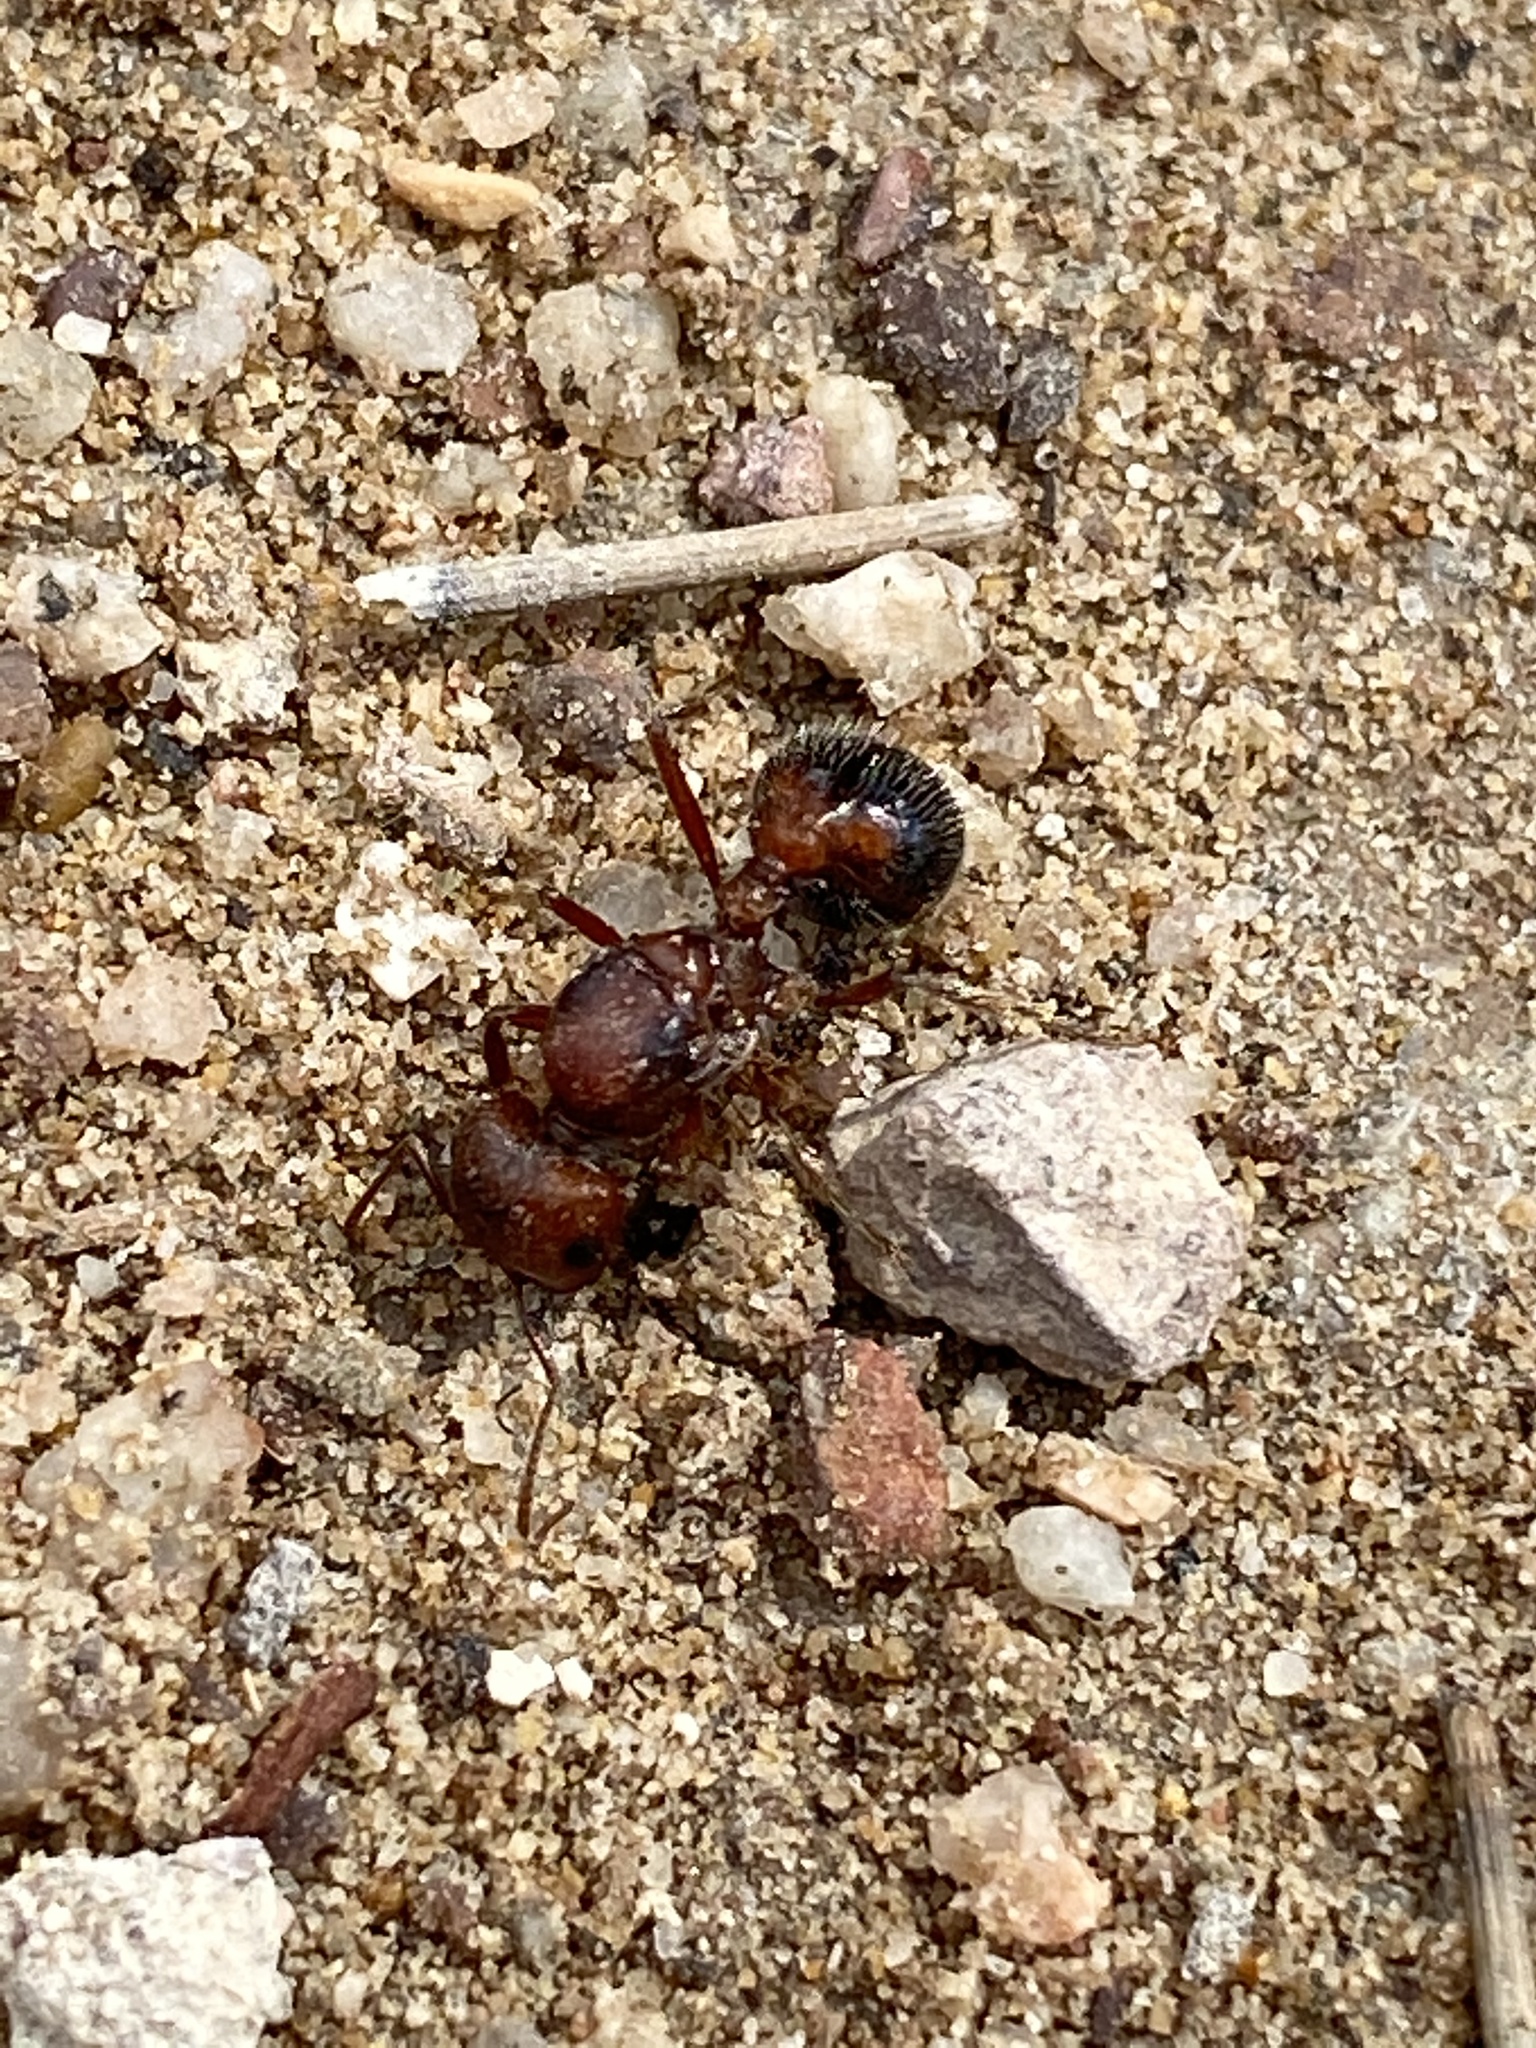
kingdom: Animalia
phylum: Arthropoda
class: Insecta
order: Hymenoptera
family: Formicidae
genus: Pogonomyrmex
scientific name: Pogonomyrmex bicolor
